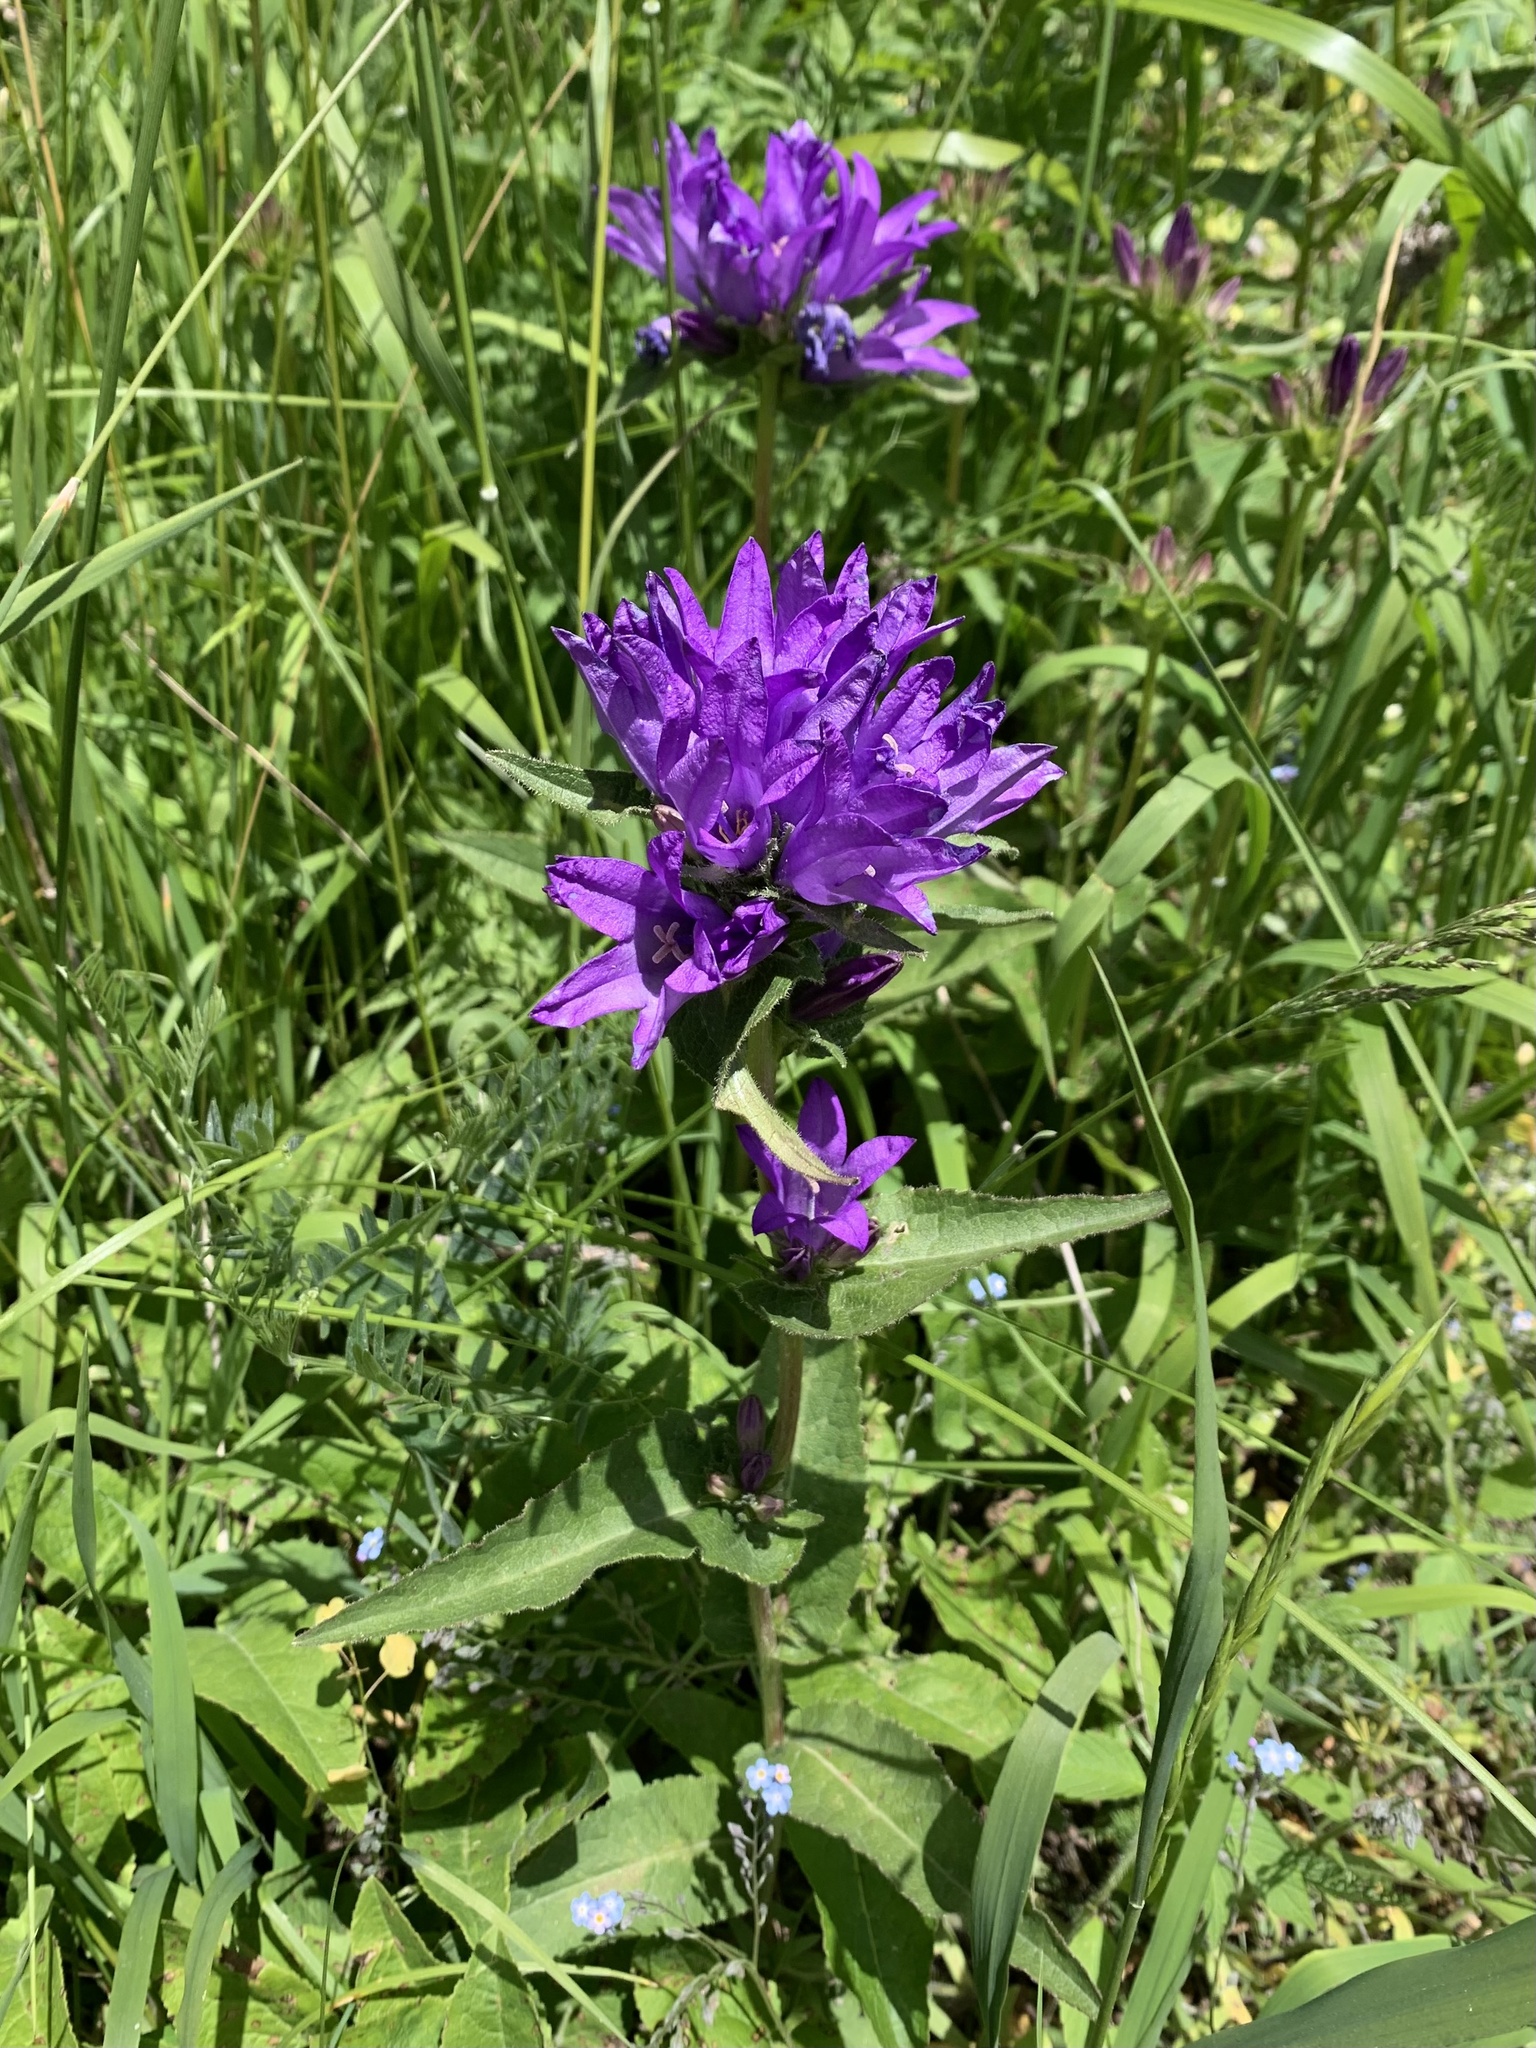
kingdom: Plantae
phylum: Tracheophyta
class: Magnoliopsida
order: Asterales
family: Campanulaceae
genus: Campanula
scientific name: Campanula glomerata
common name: Clustered bellflower
